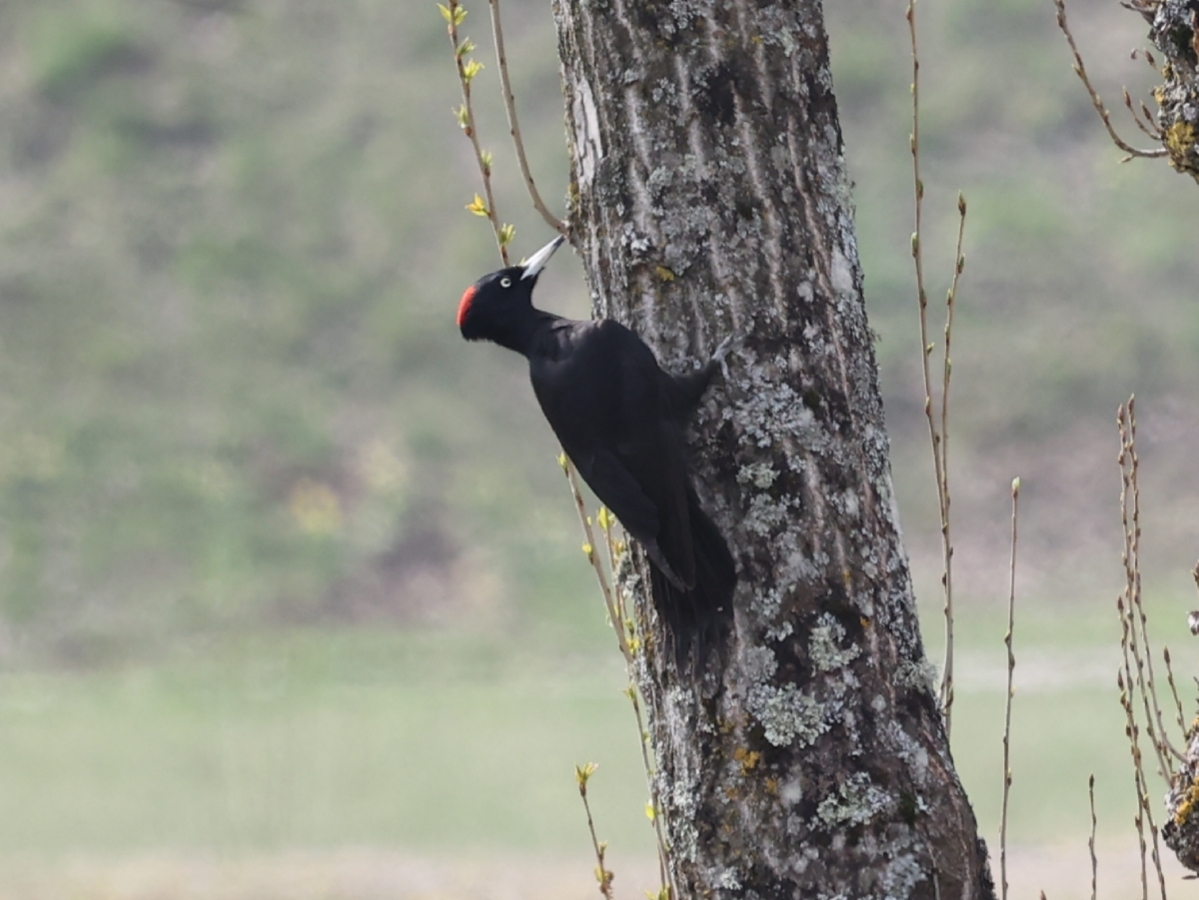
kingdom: Animalia
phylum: Chordata
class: Aves
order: Piciformes
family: Picidae
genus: Dryocopus
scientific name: Dryocopus martius
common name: Black woodpecker
